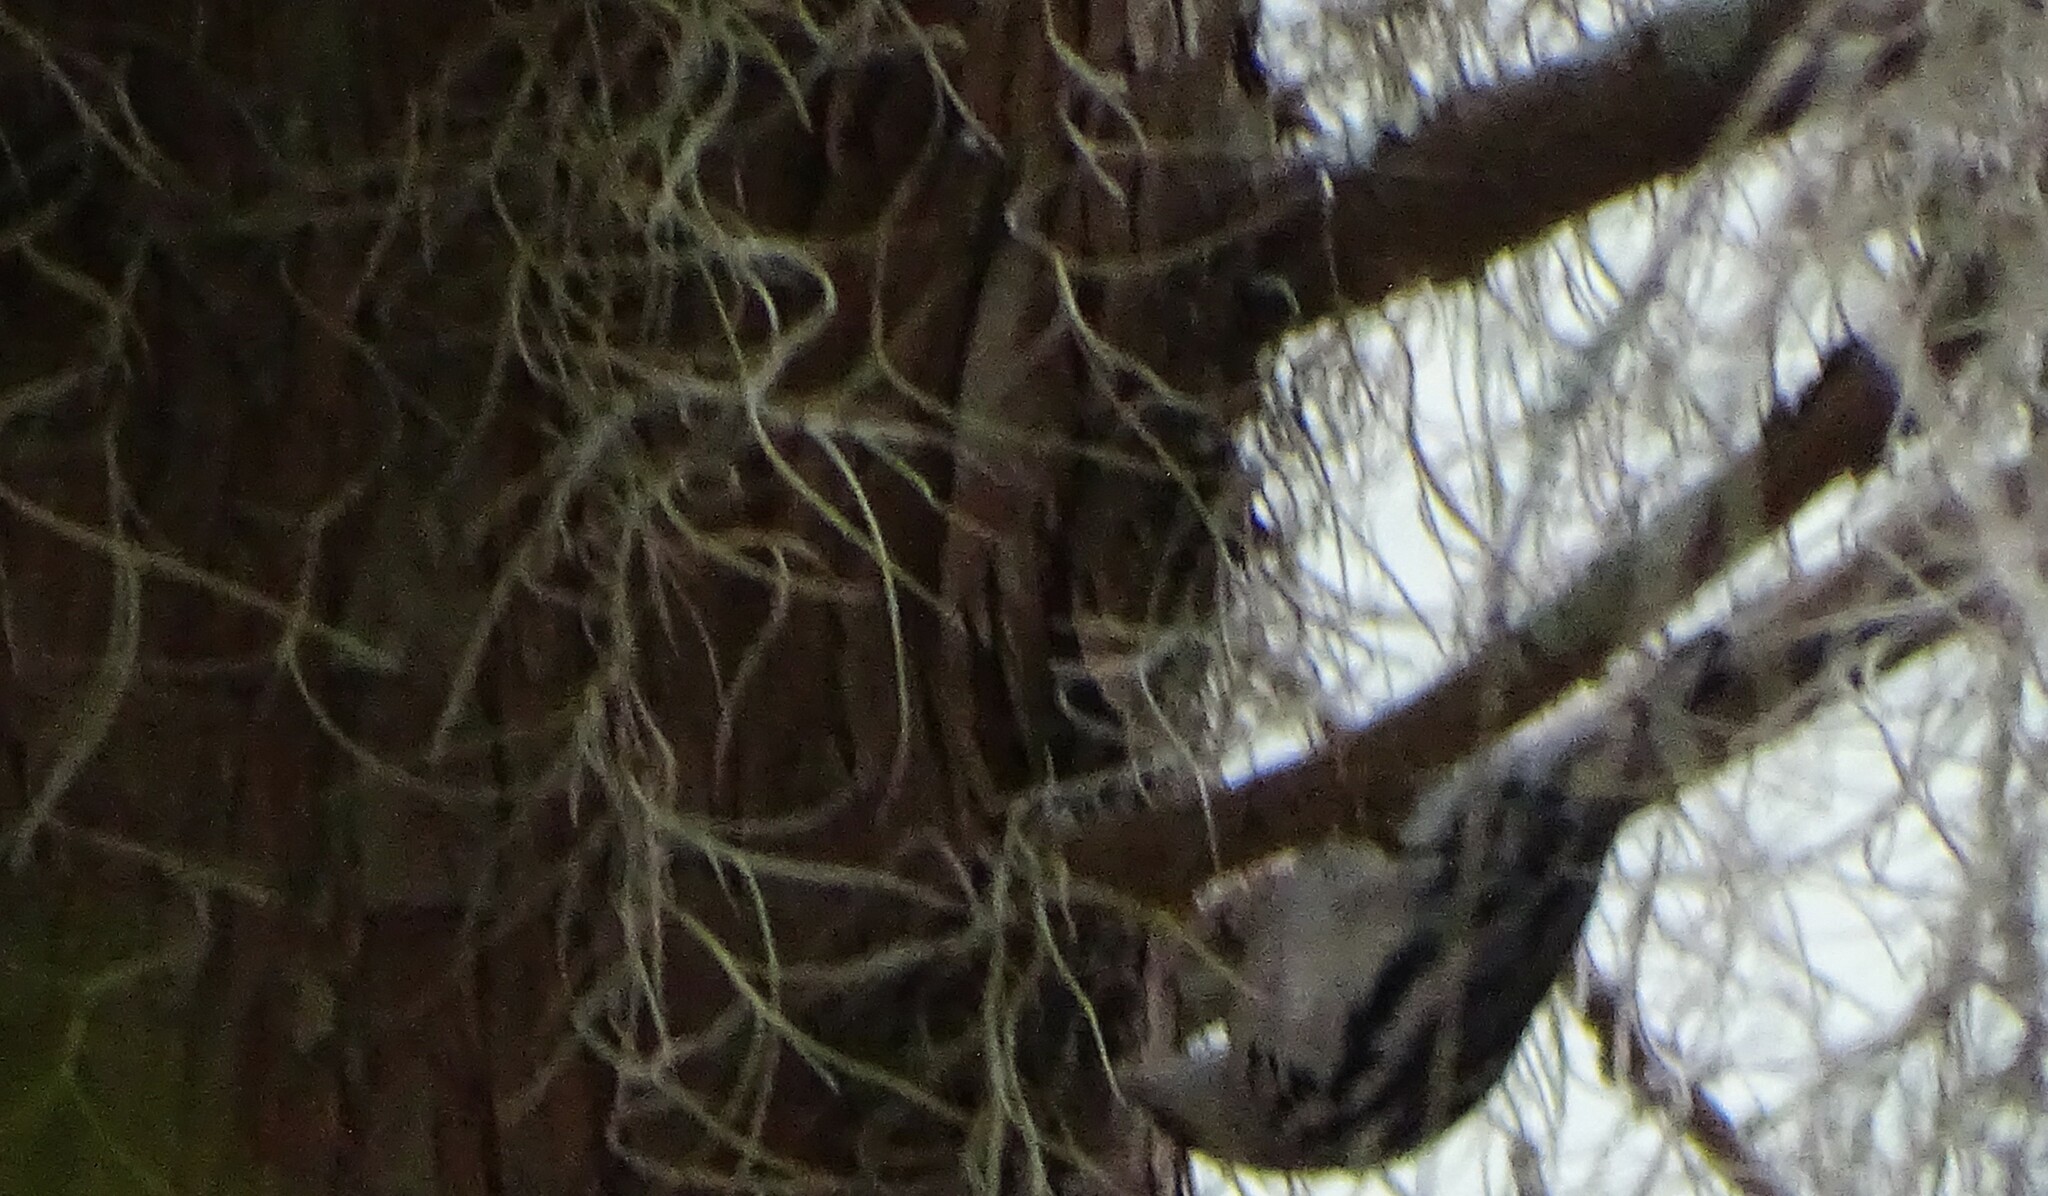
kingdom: Animalia
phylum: Chordata
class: Aves
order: Passeriformes
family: Parulidae
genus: Mniotilta
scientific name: Mniotilta varia
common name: Black-and-white warbler
